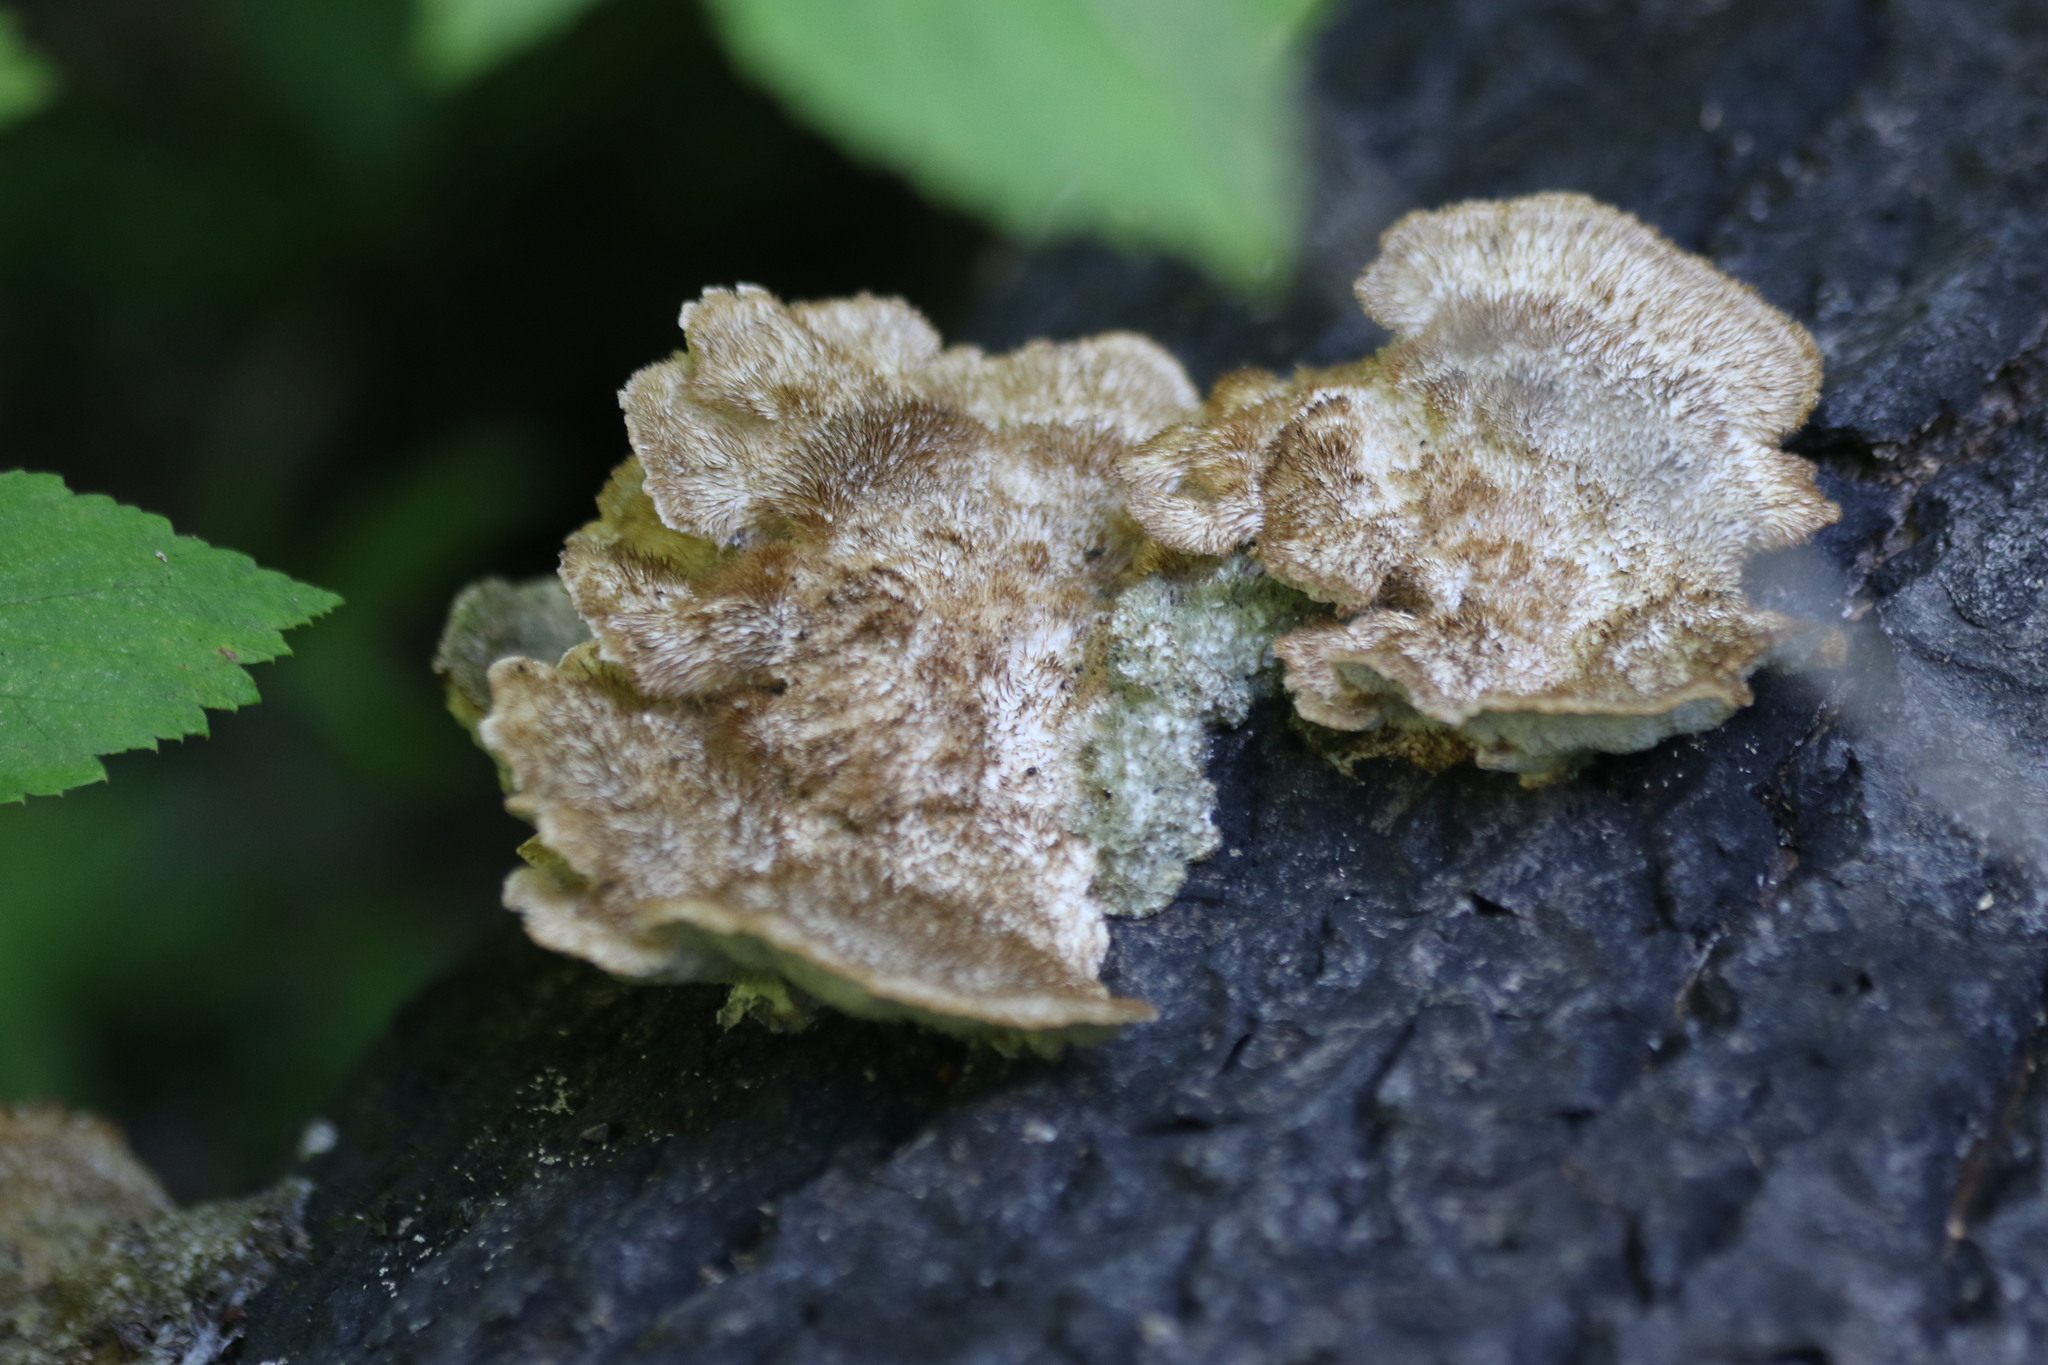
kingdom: Fungi
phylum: Basidiomycota
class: Agaricomycetes
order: Polyporales
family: Polyporaceae
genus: Trametes
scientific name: Trametes trogii
